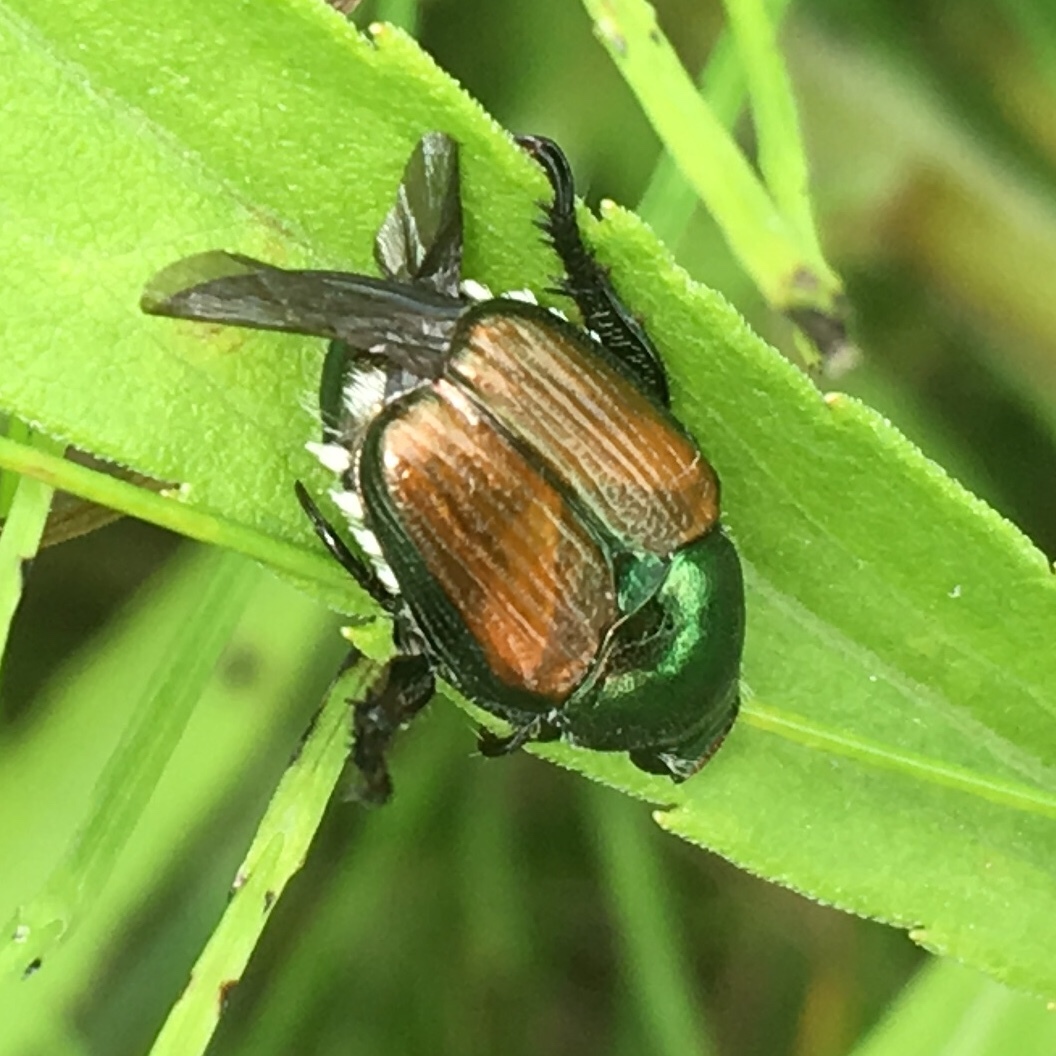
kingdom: Animalia
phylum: Arthropoda
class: Insecta
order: Coleoptera
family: Scarabaeidae
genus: Popillia
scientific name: Popillia japonica
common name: Japanese beetle
